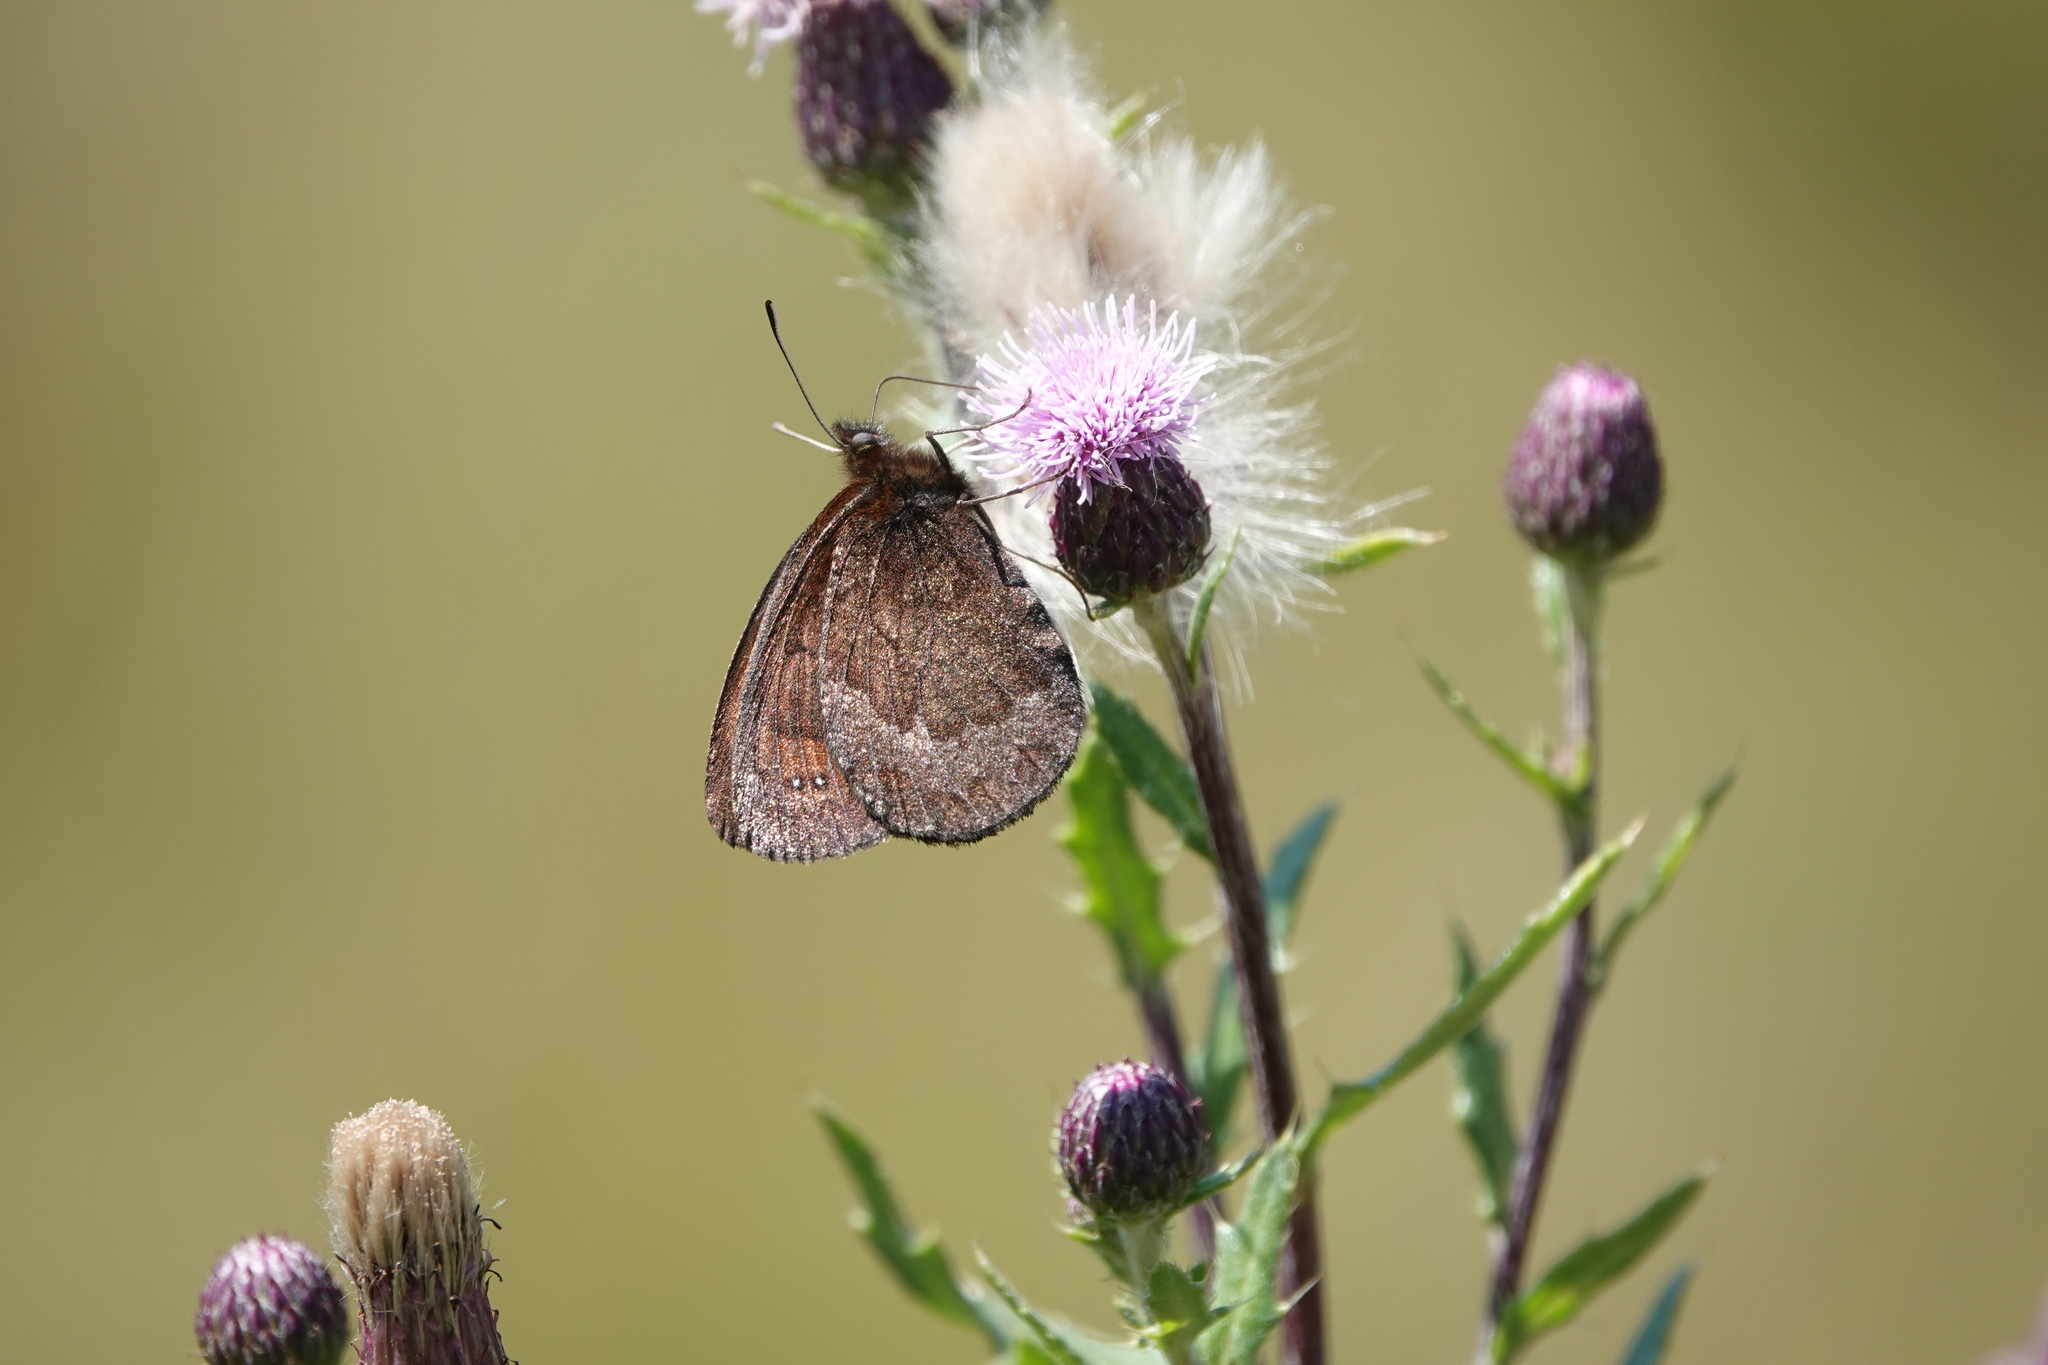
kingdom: Animalia
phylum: Arthropoda
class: Insecta
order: Lepidoptera
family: Nymphalidae
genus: Erebia
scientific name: Erebia pronoe
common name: Water ringlet
